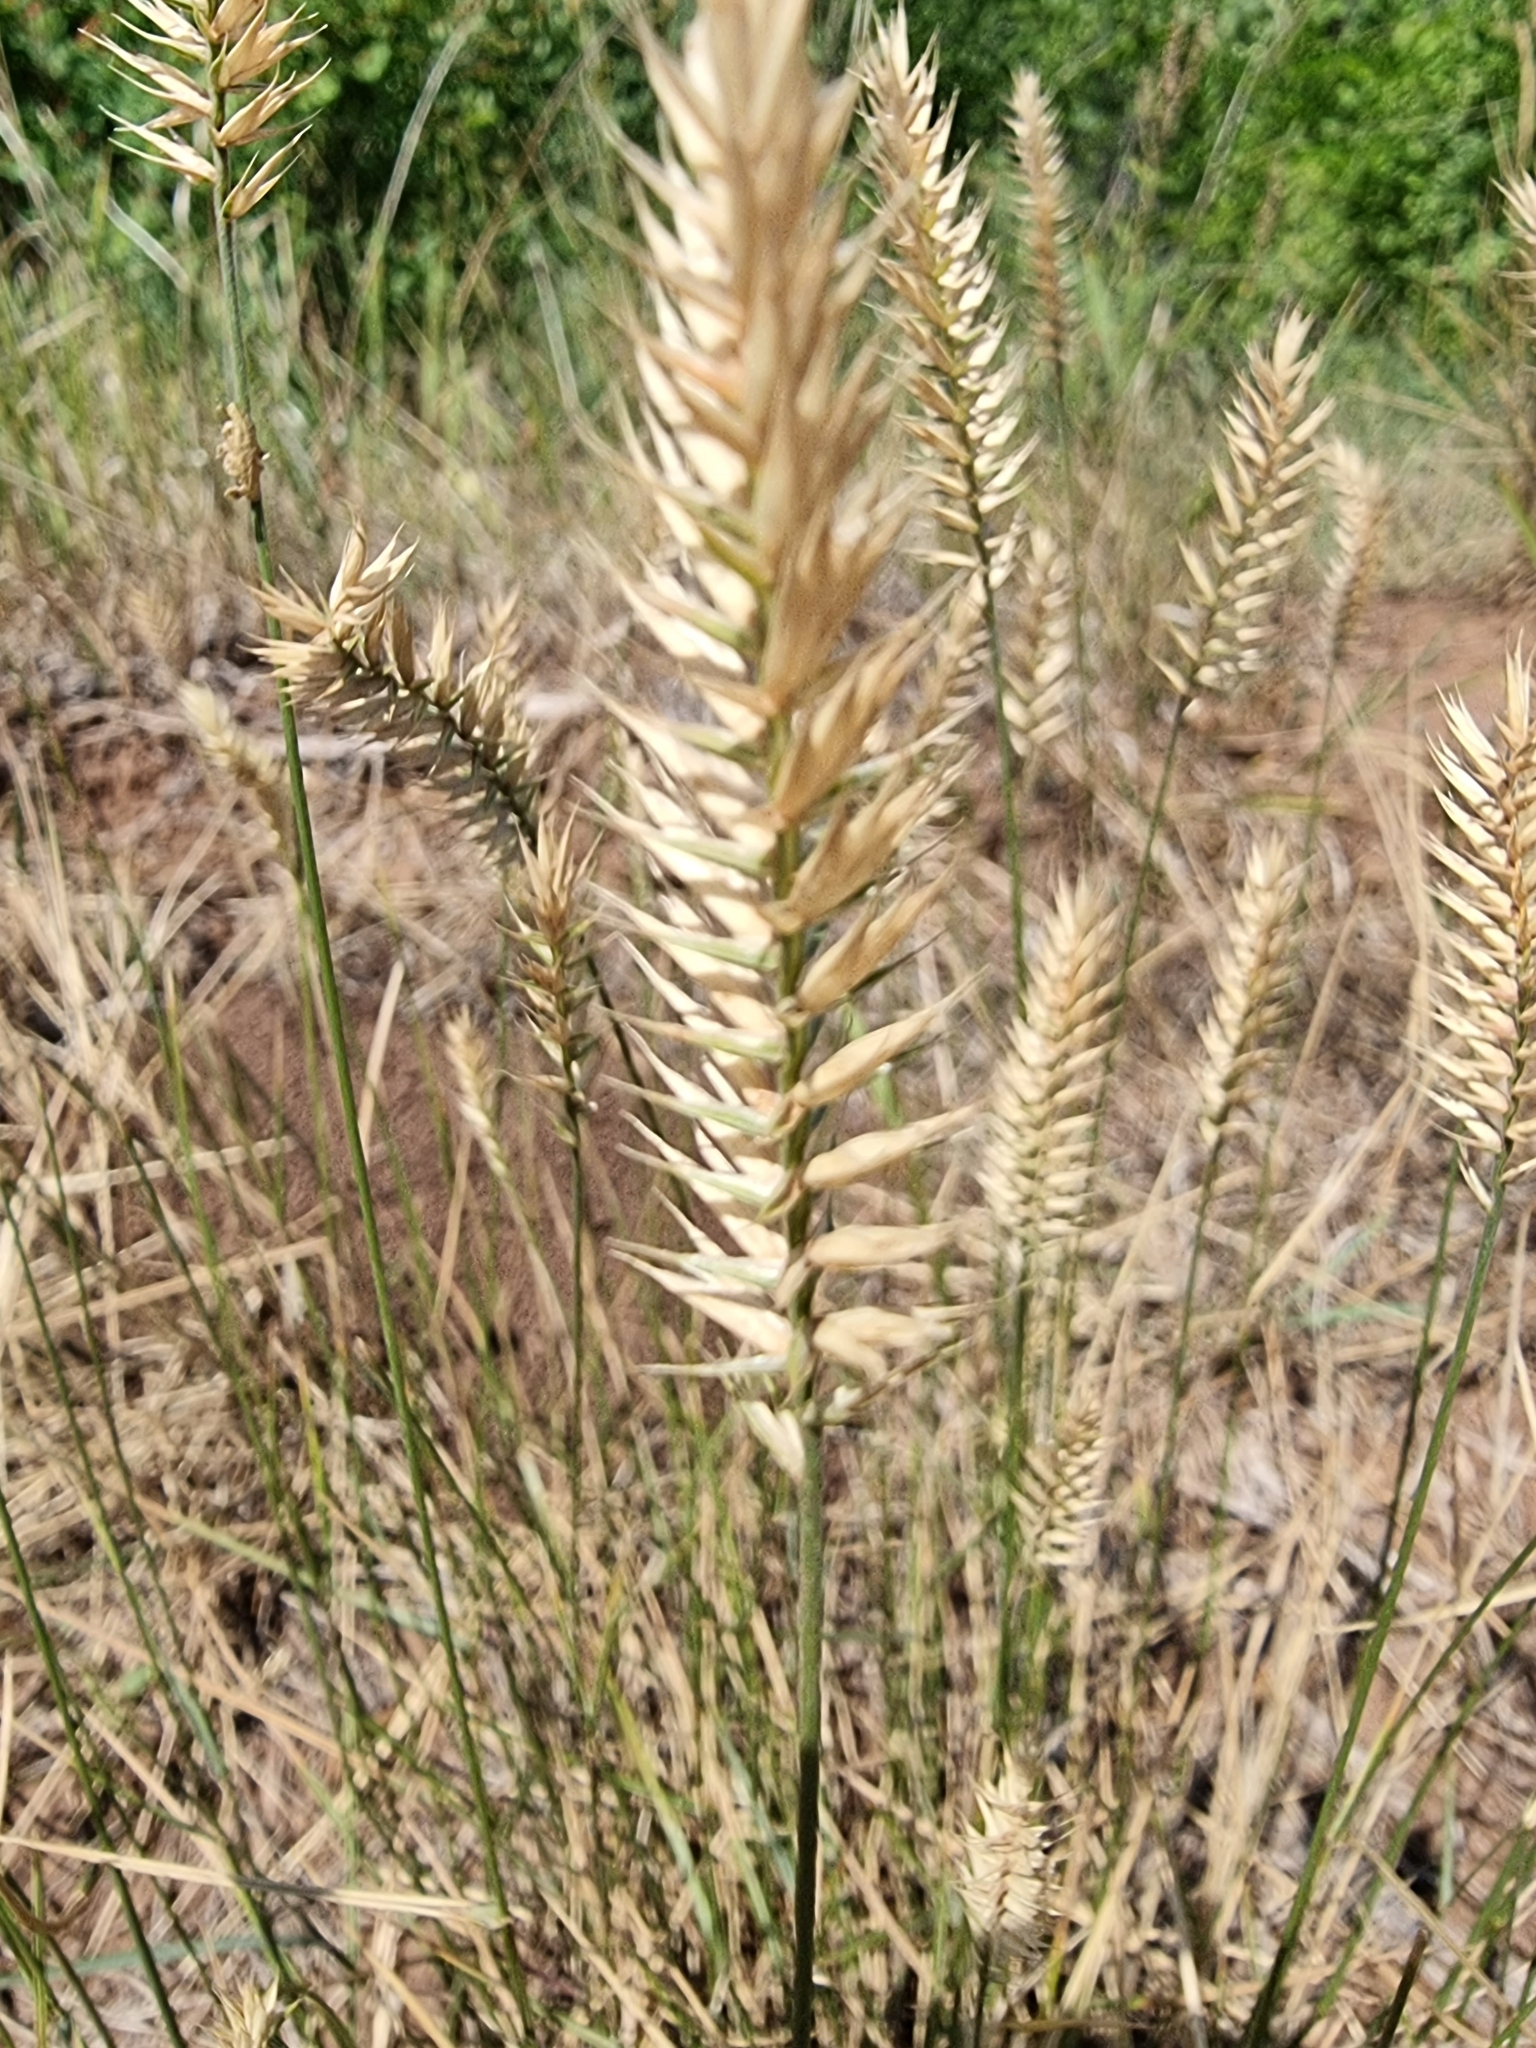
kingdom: Plantae
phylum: Tracheophyta
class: Liliopsida
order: Poales
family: Poaceae
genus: Agropyron
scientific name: Agropyron cristatum
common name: Crested wheatgrass
